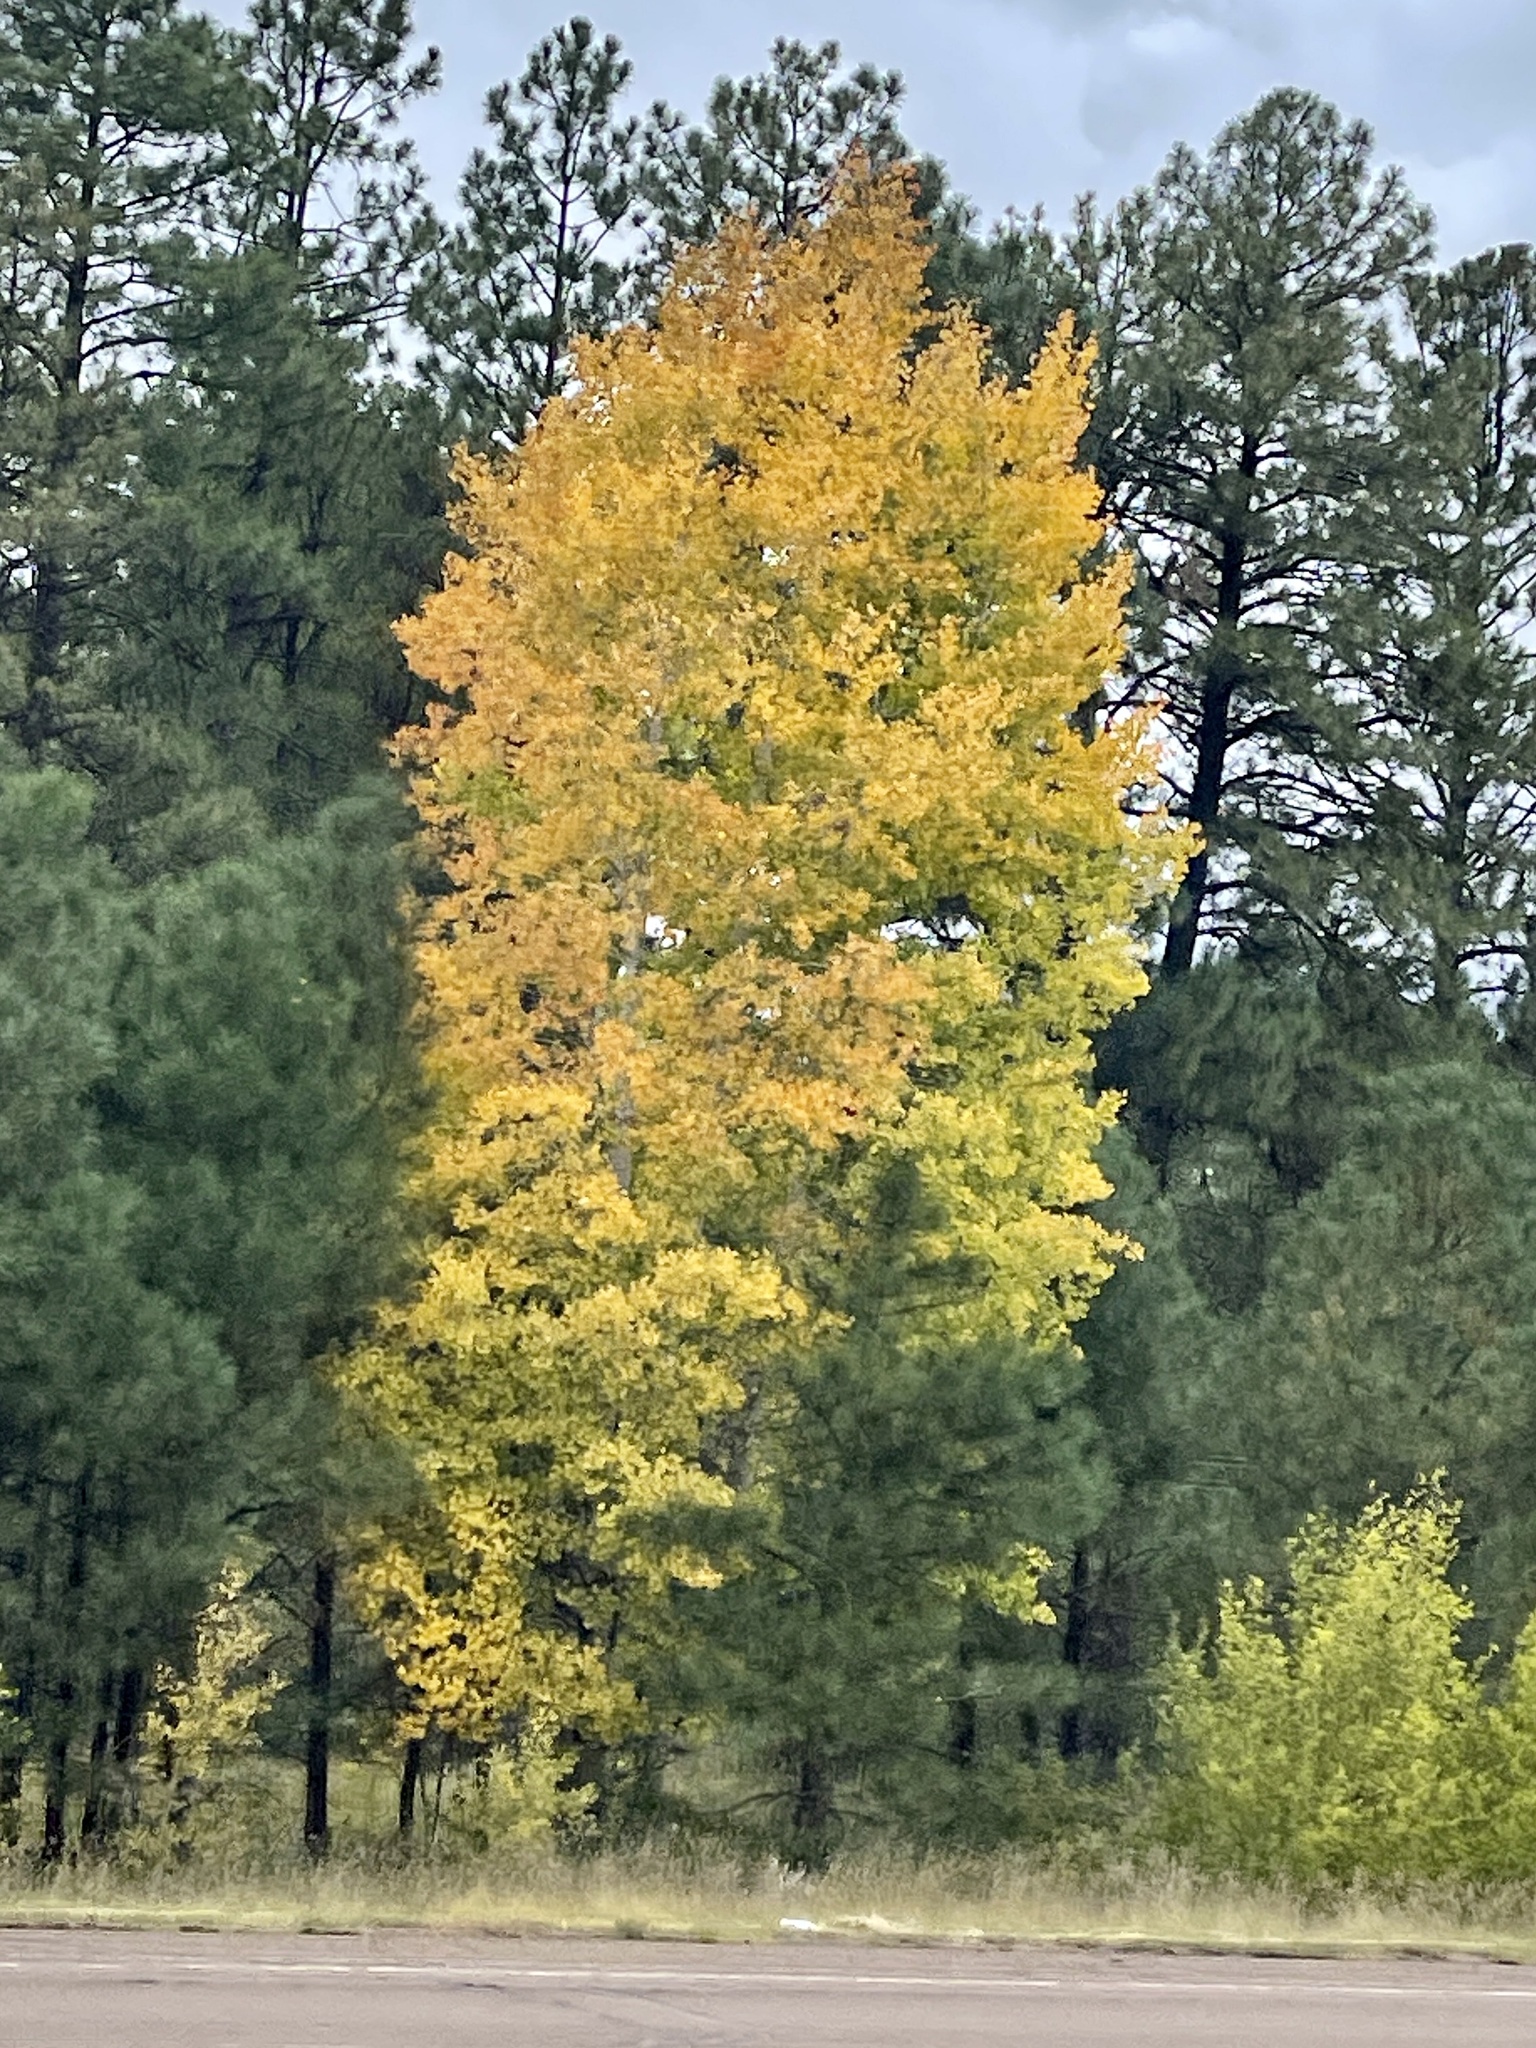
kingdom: Plantae
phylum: Tracheophyta
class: Magnoliopsida
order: Malpighiales
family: Salicaceae
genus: Populus
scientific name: Populus tremuloides
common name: Quaking aspen
